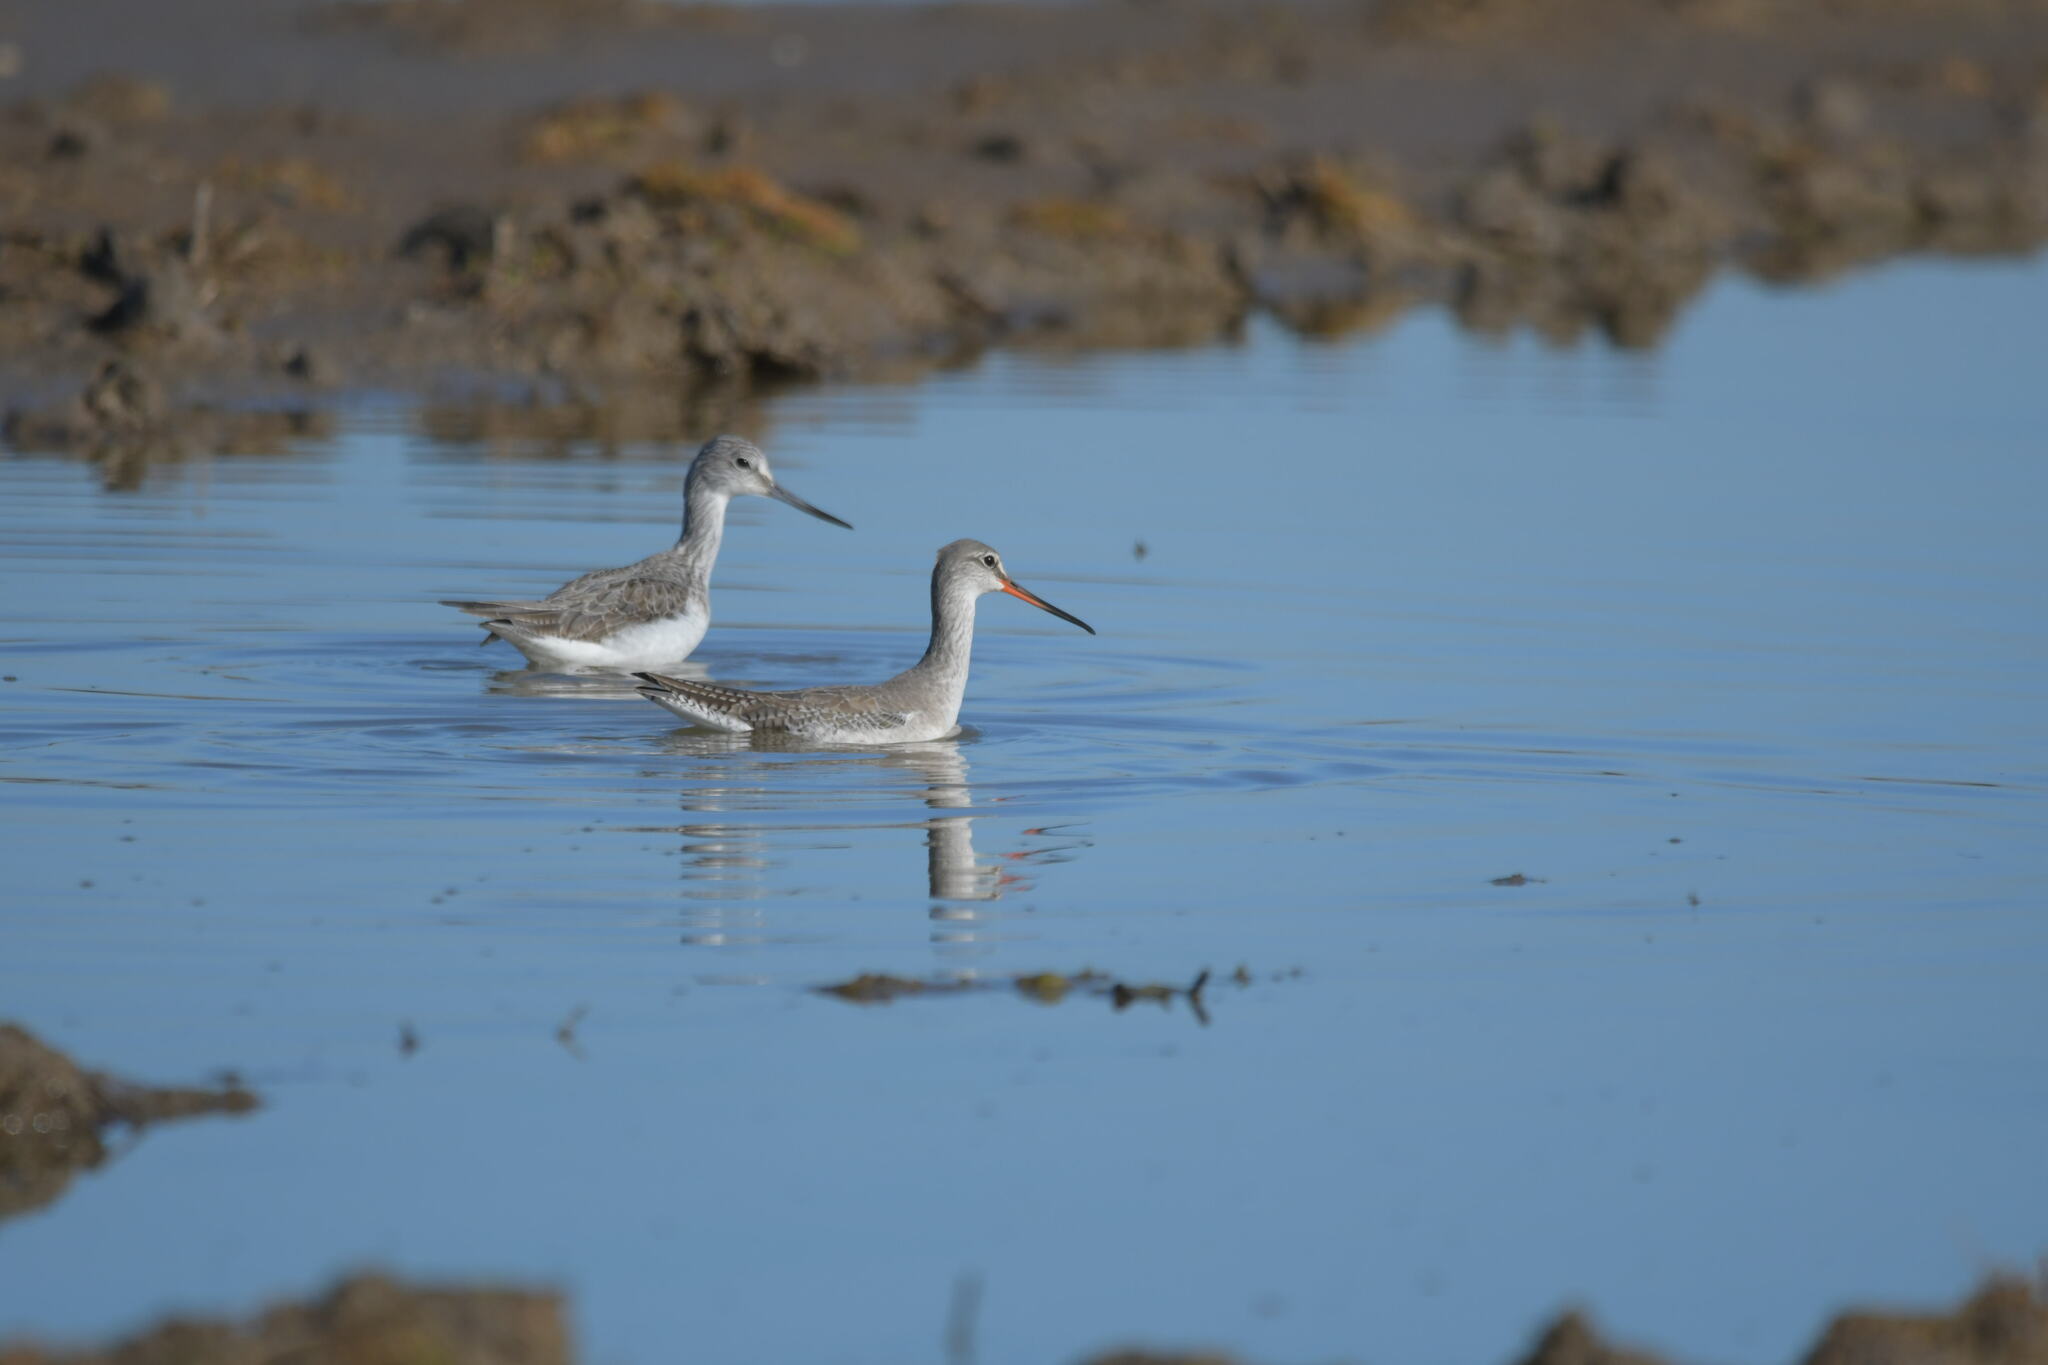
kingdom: Animalia
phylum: Chordata
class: Aves
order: Charadriiformes
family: Scolopacidae
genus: Tringa
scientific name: Tringa erythropus
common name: Spotted redshank
